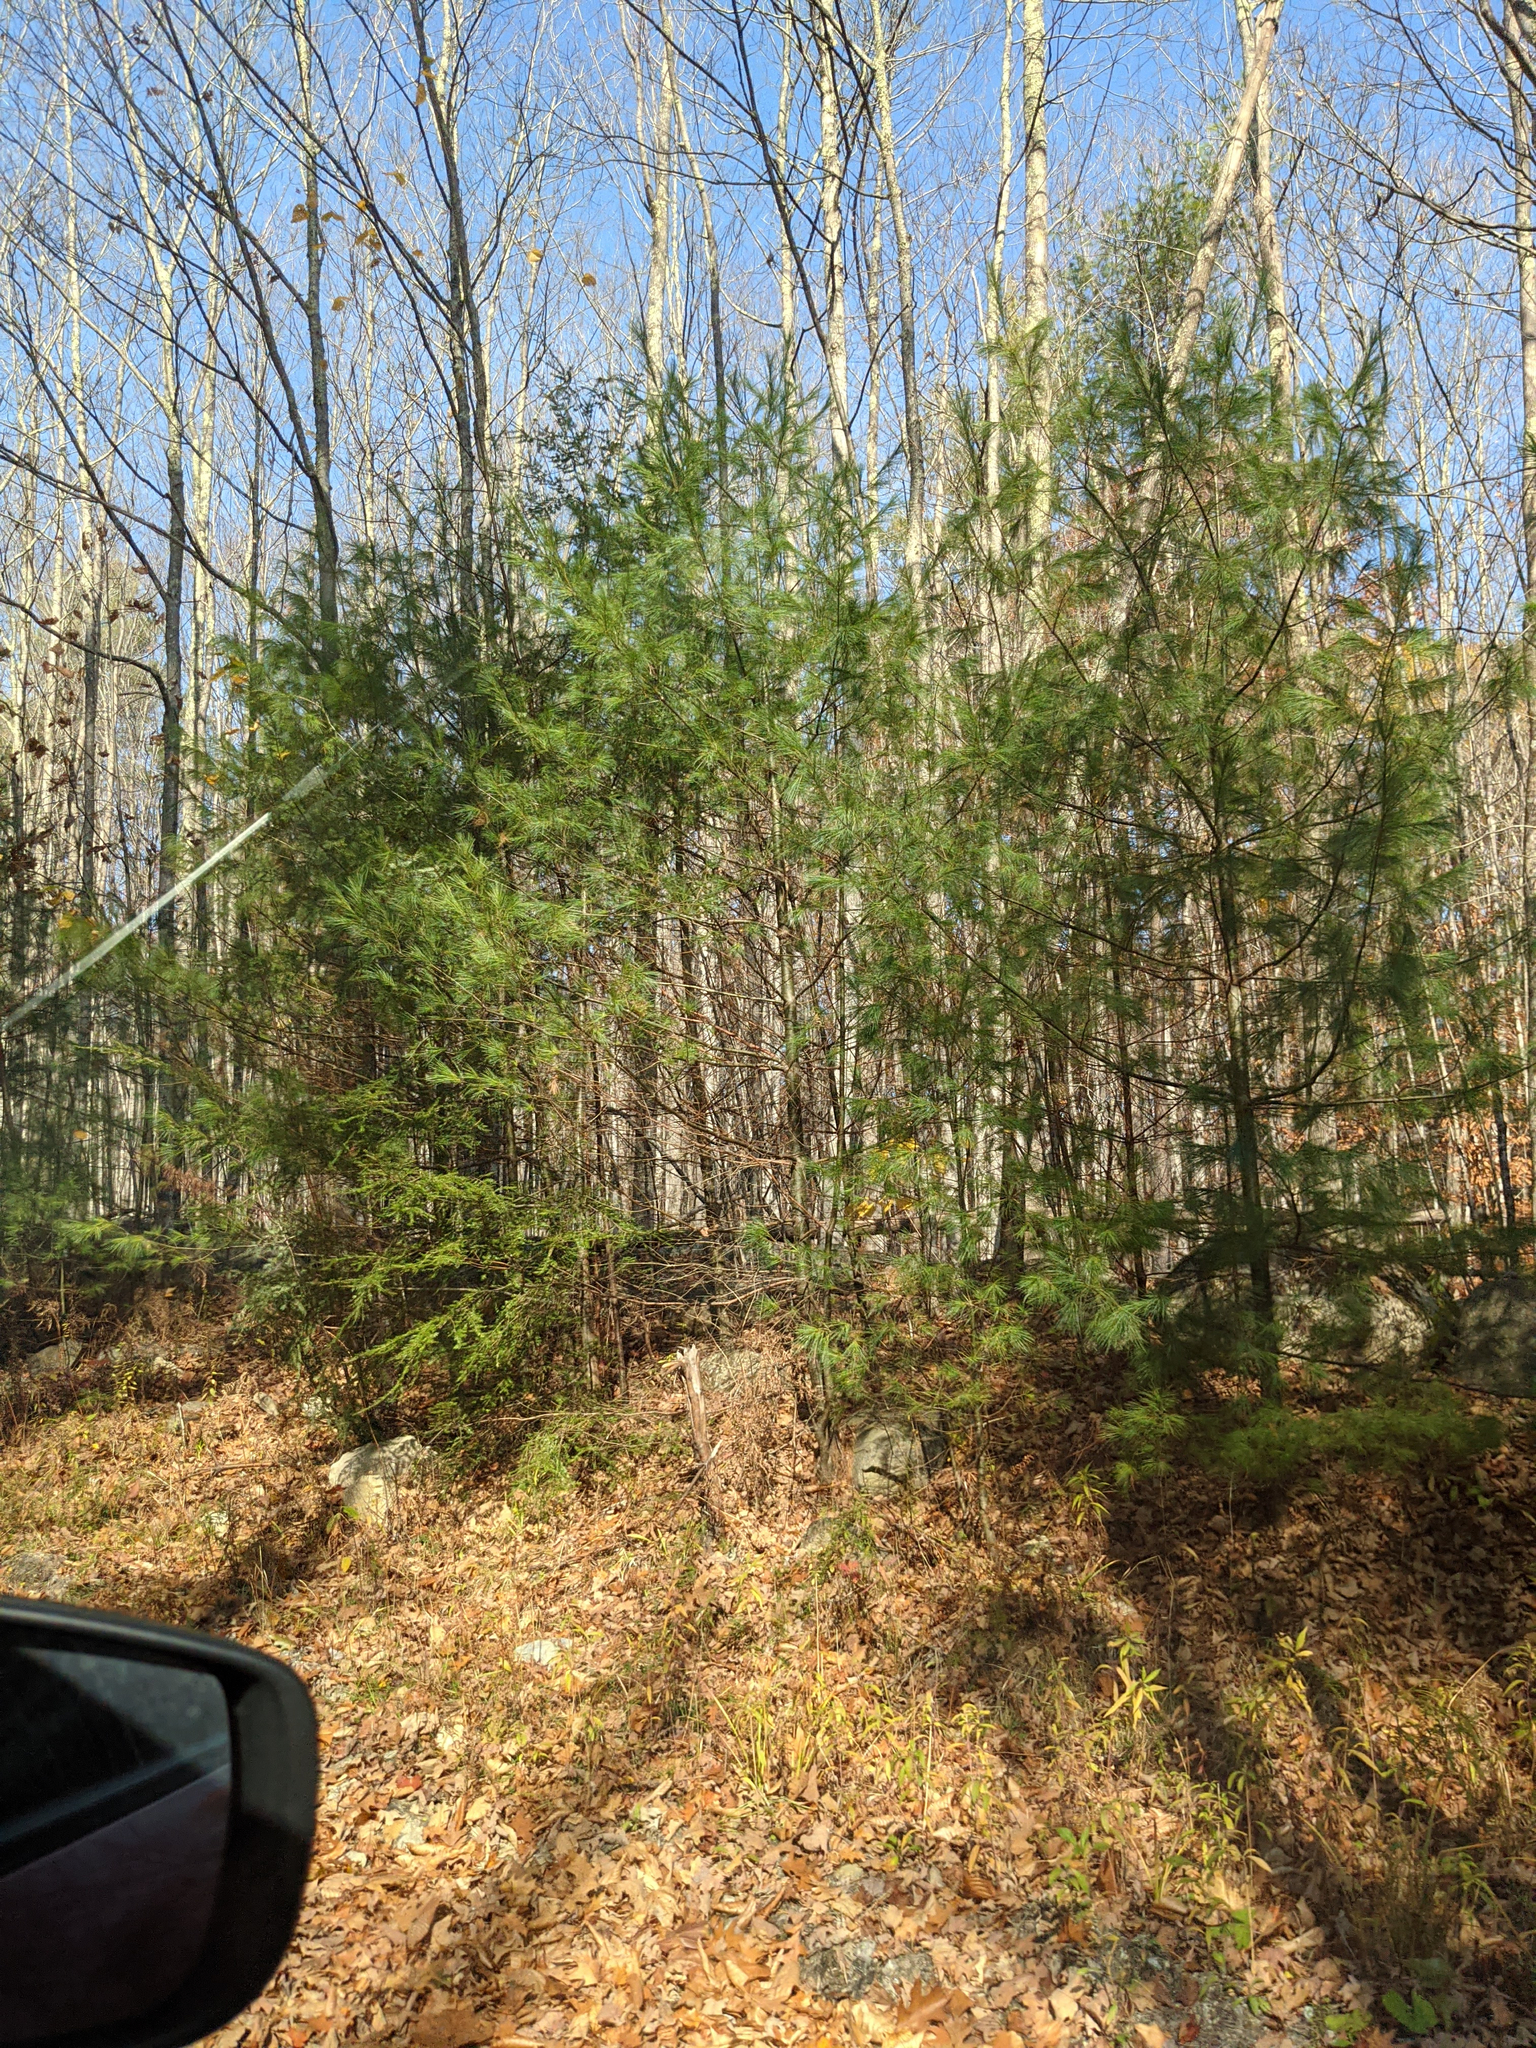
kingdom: Plantae
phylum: Tracheophyta
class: Pinopsida
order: Pinales
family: Pinaceae
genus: Pinus
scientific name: Pinus strobus
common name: Weymouth pine
